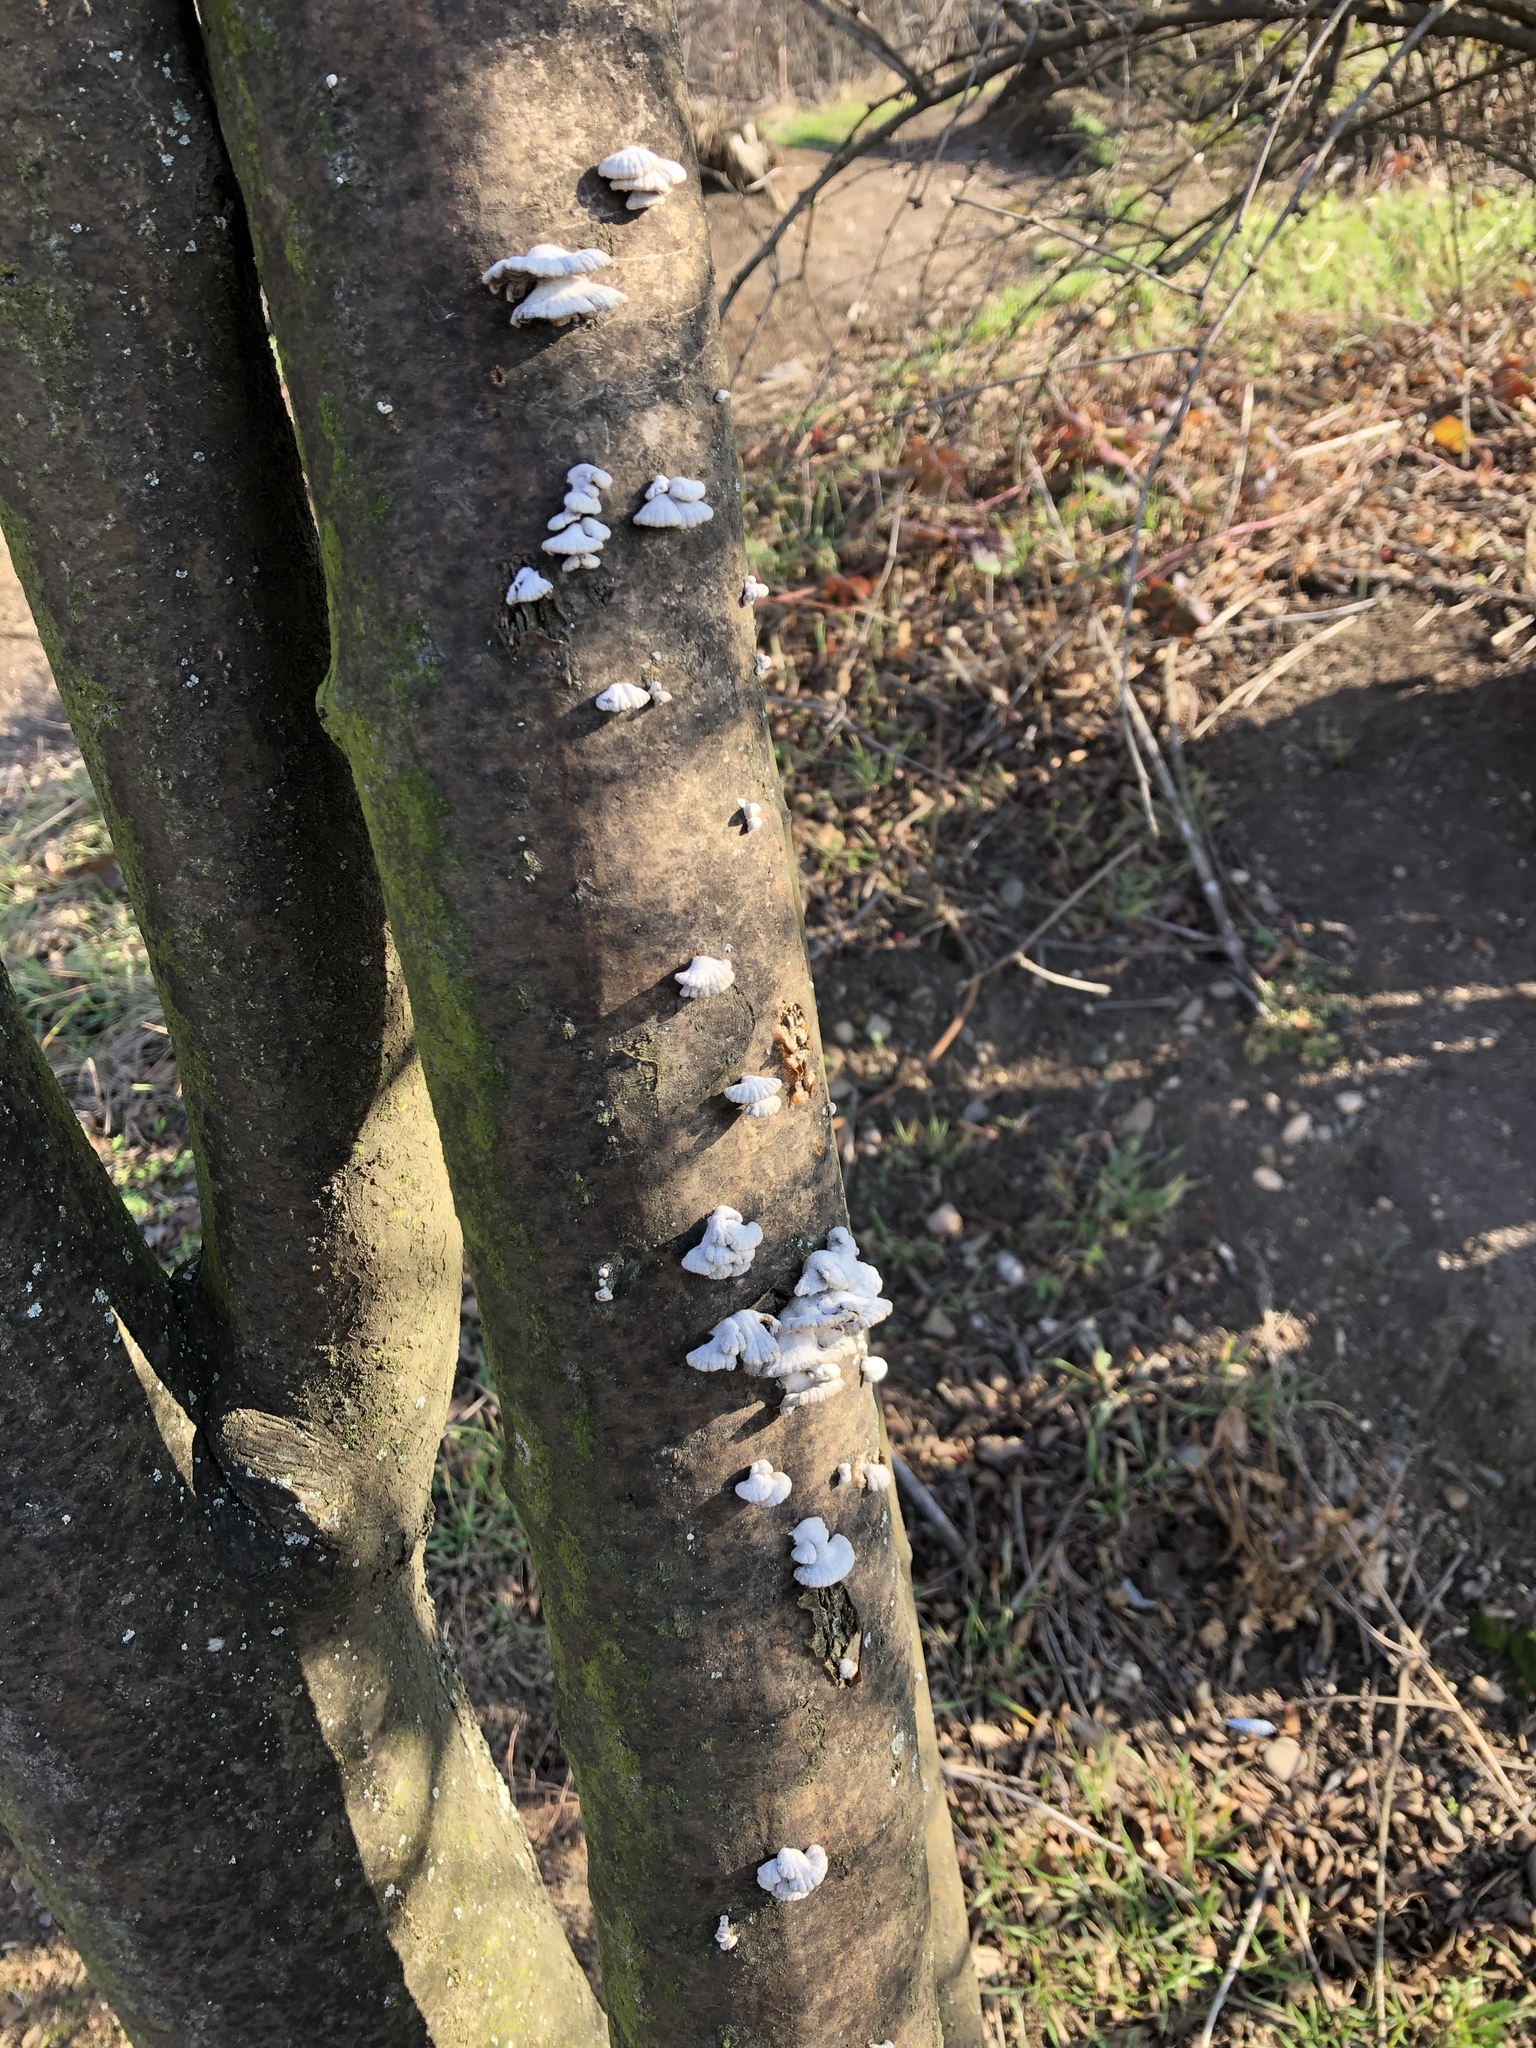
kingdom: Fungi
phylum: Basidiomycota
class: Agaricomycetes
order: Agaricales
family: Schizophyllaceae
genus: Schizophyllum
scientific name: Schizophyllum commune
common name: Common porecrust
